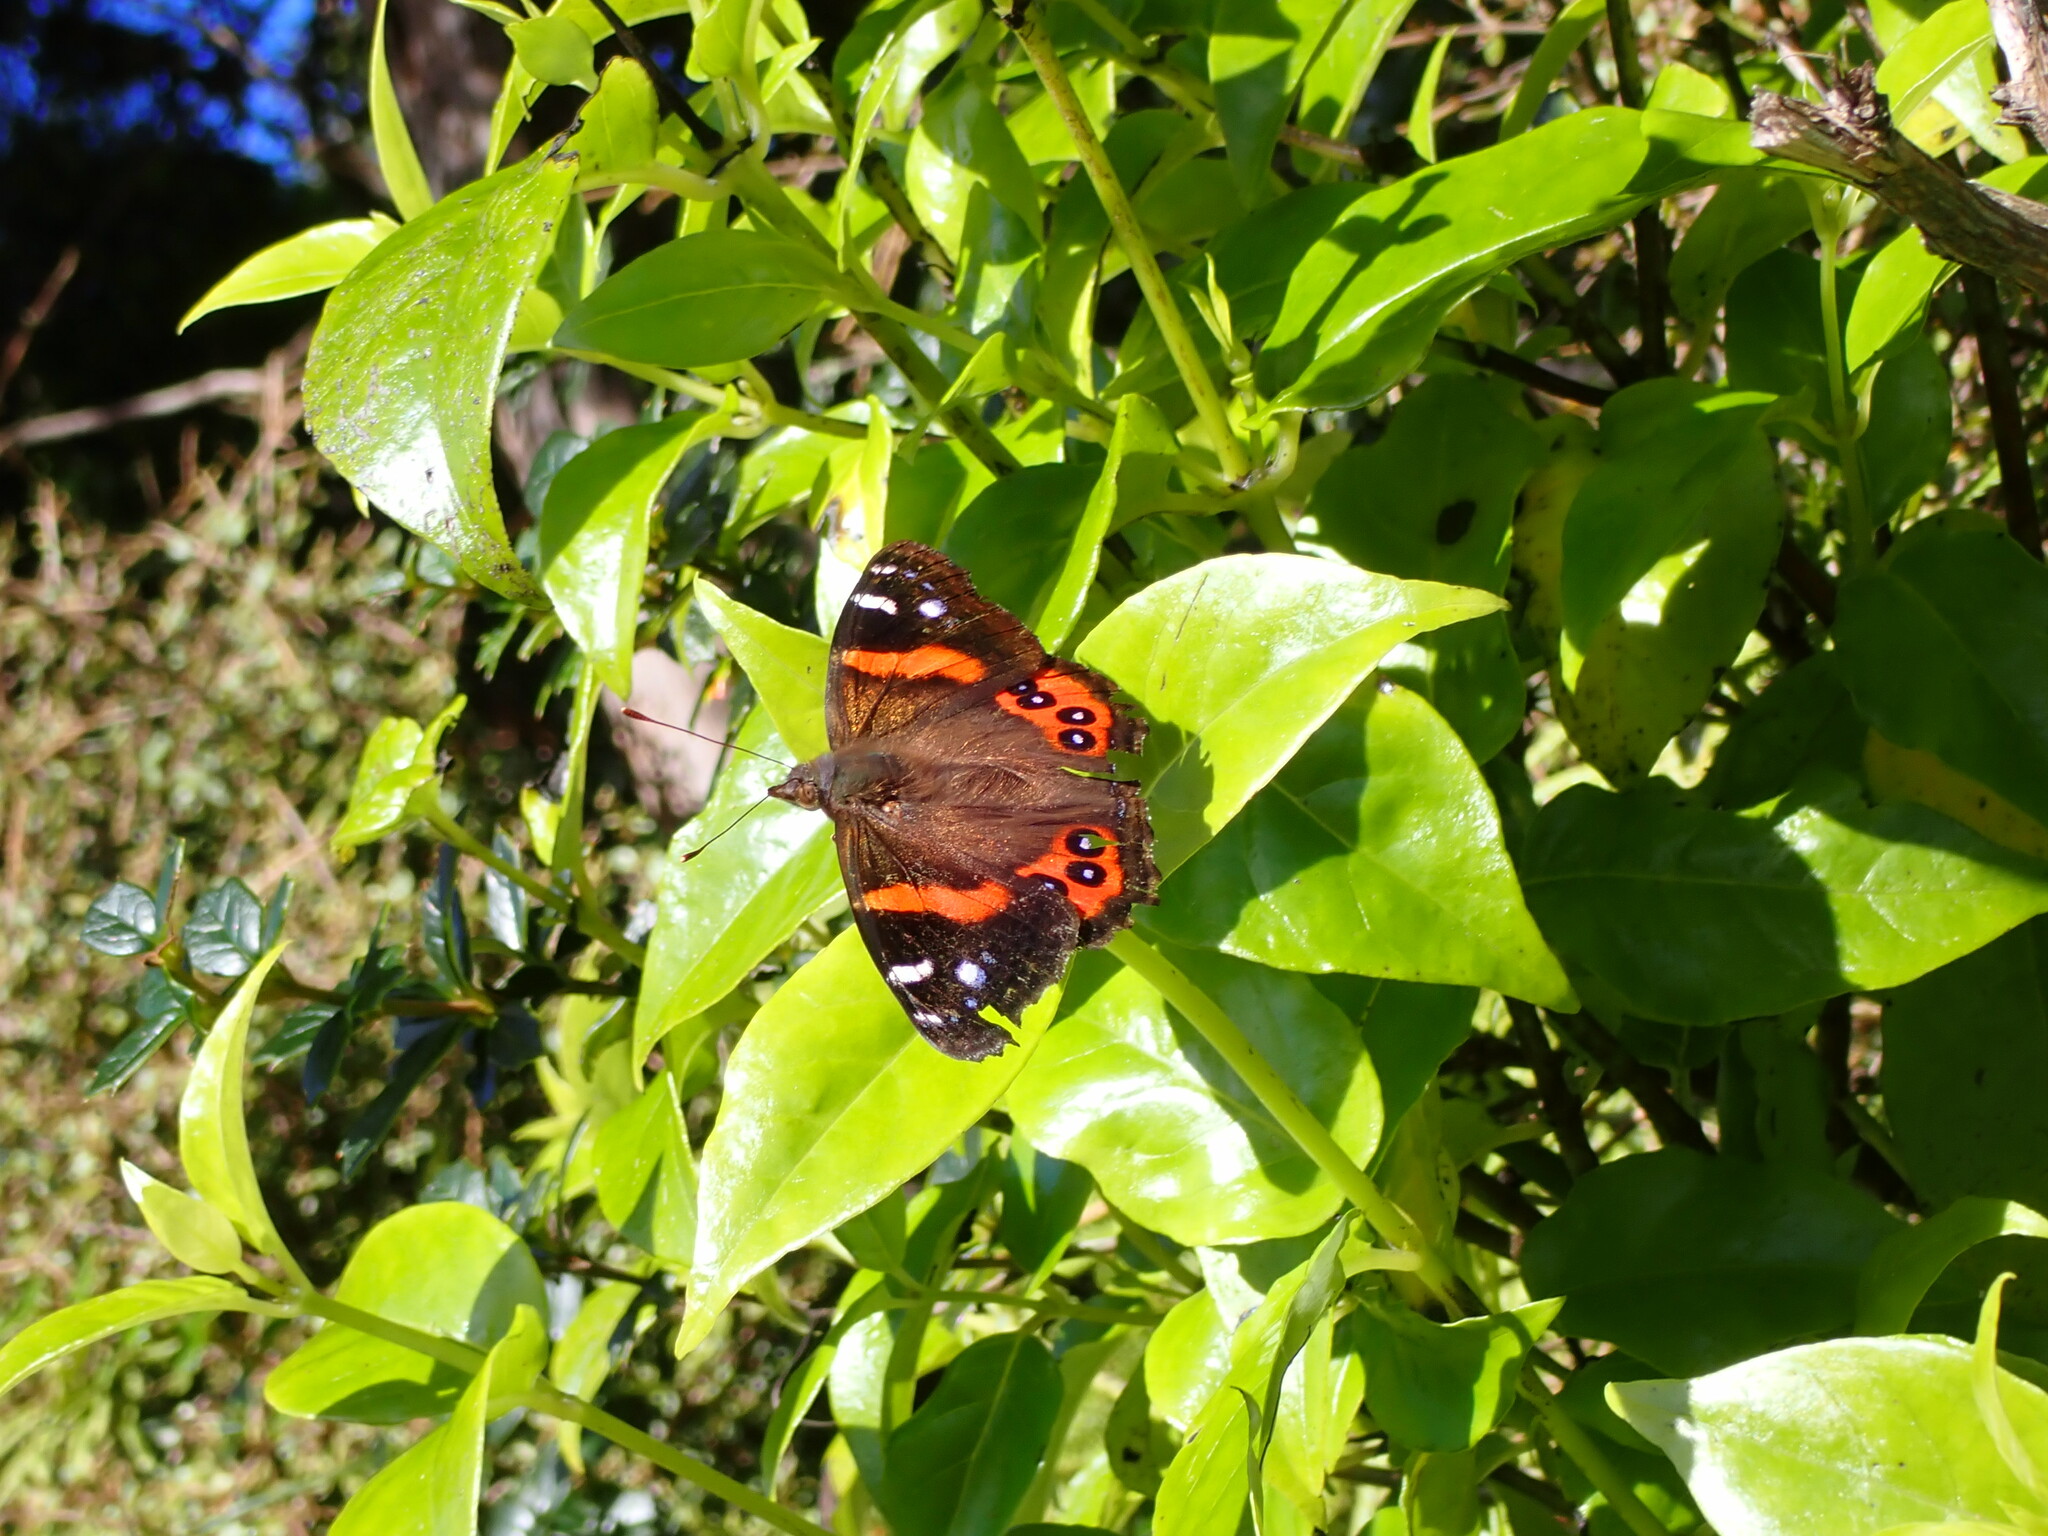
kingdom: Animalia
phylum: Arthropoda
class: Insecta
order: Lepidoptera
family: Nymphalidae
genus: Vanessa
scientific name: Vanessa gonerilla
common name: New zealand red admiral
